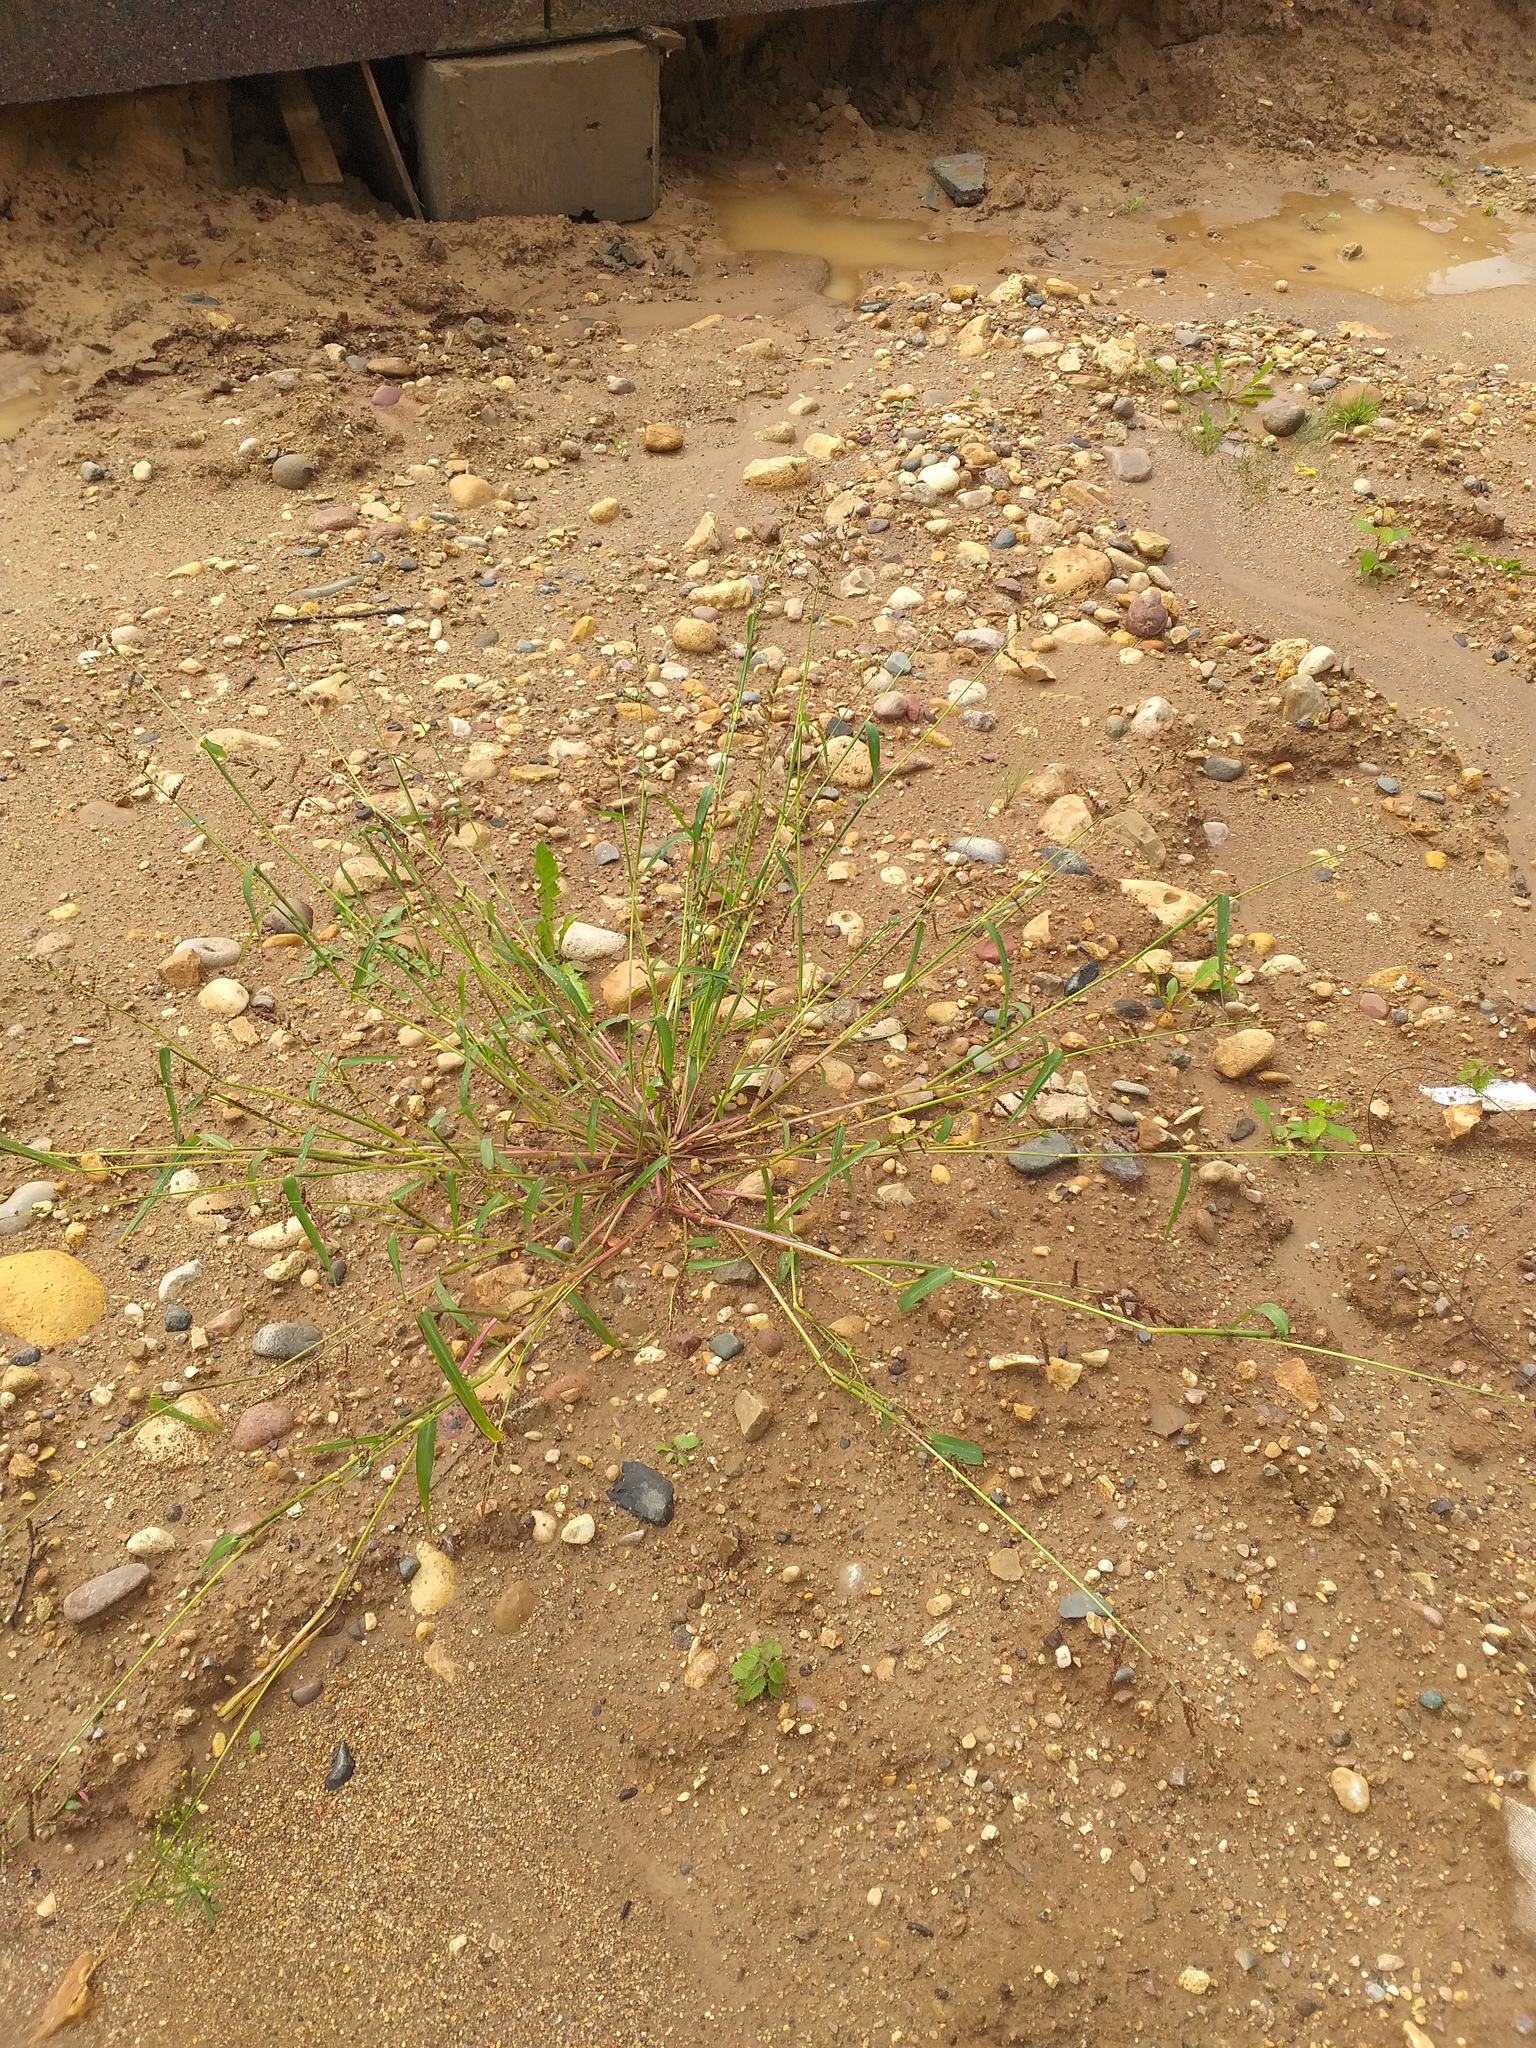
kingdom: Plantae
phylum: Tracheophyta
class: Liliopsida
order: Poales
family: Poaceae
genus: Echinochloa
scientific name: Echinochloa crus-galli
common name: Cockspur
